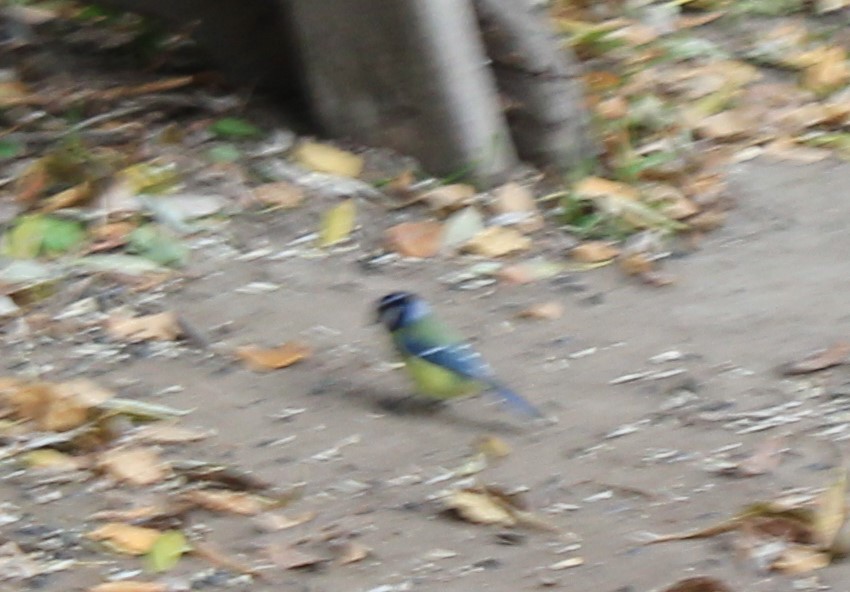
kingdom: Animalia
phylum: Chordata
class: Aves
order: Passeriformes
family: Paridae
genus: Cyanistes
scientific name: Cyanistes caeruleus
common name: Eurasian blue tit
